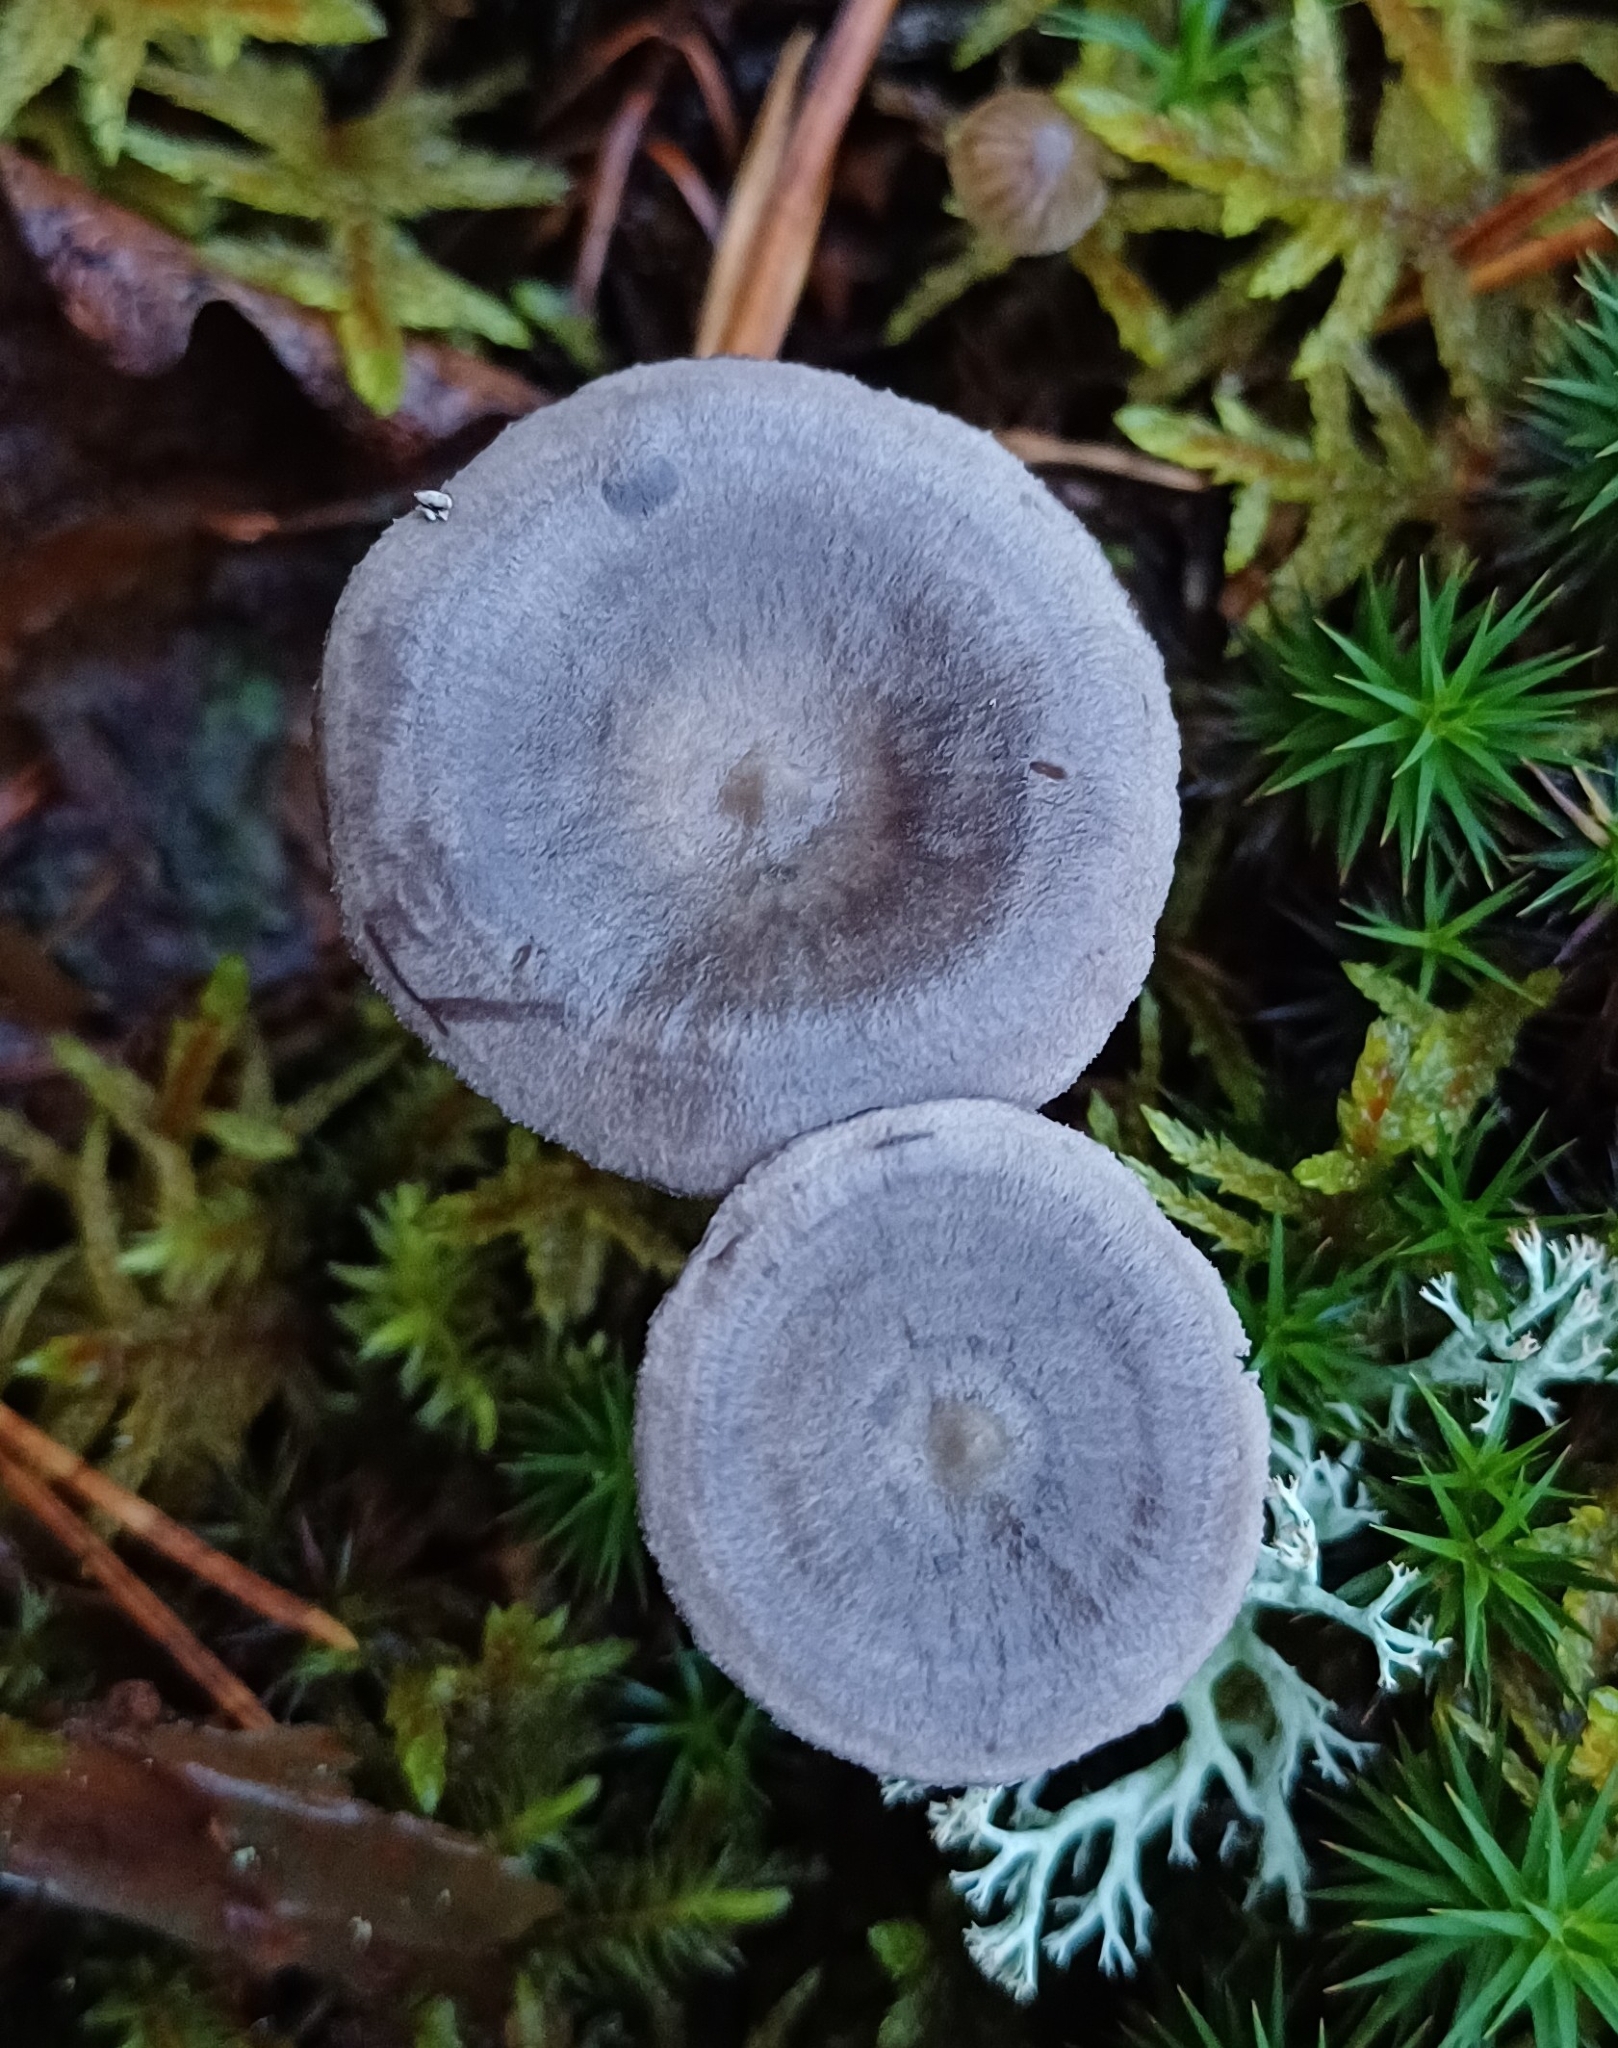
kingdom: Fungi
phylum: Basidiomycota
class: Agaricomycetes
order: Agaricales
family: Hygrophoraceae
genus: Cantharellula
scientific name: Cantharellula umbonata
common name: The humpback
